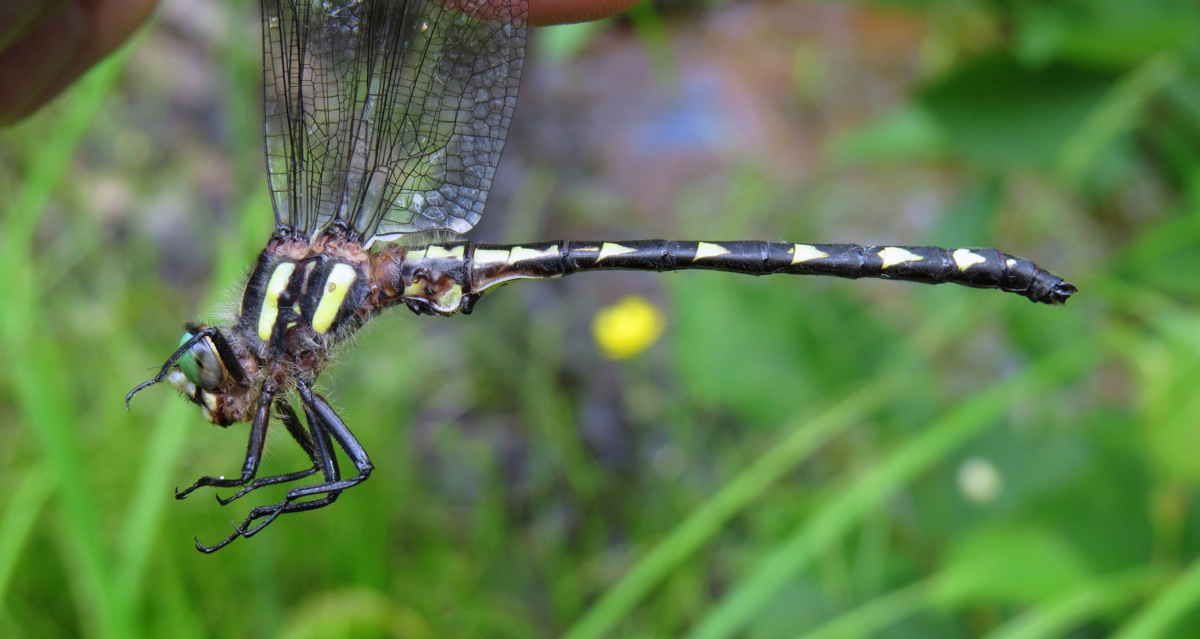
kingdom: Animalia
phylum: Arthropoda
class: Insecta
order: Odonata
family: Cordulegastridae
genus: Cordulegaster
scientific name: Cordulegaster diastatops
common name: Delta-spotted spiketail
